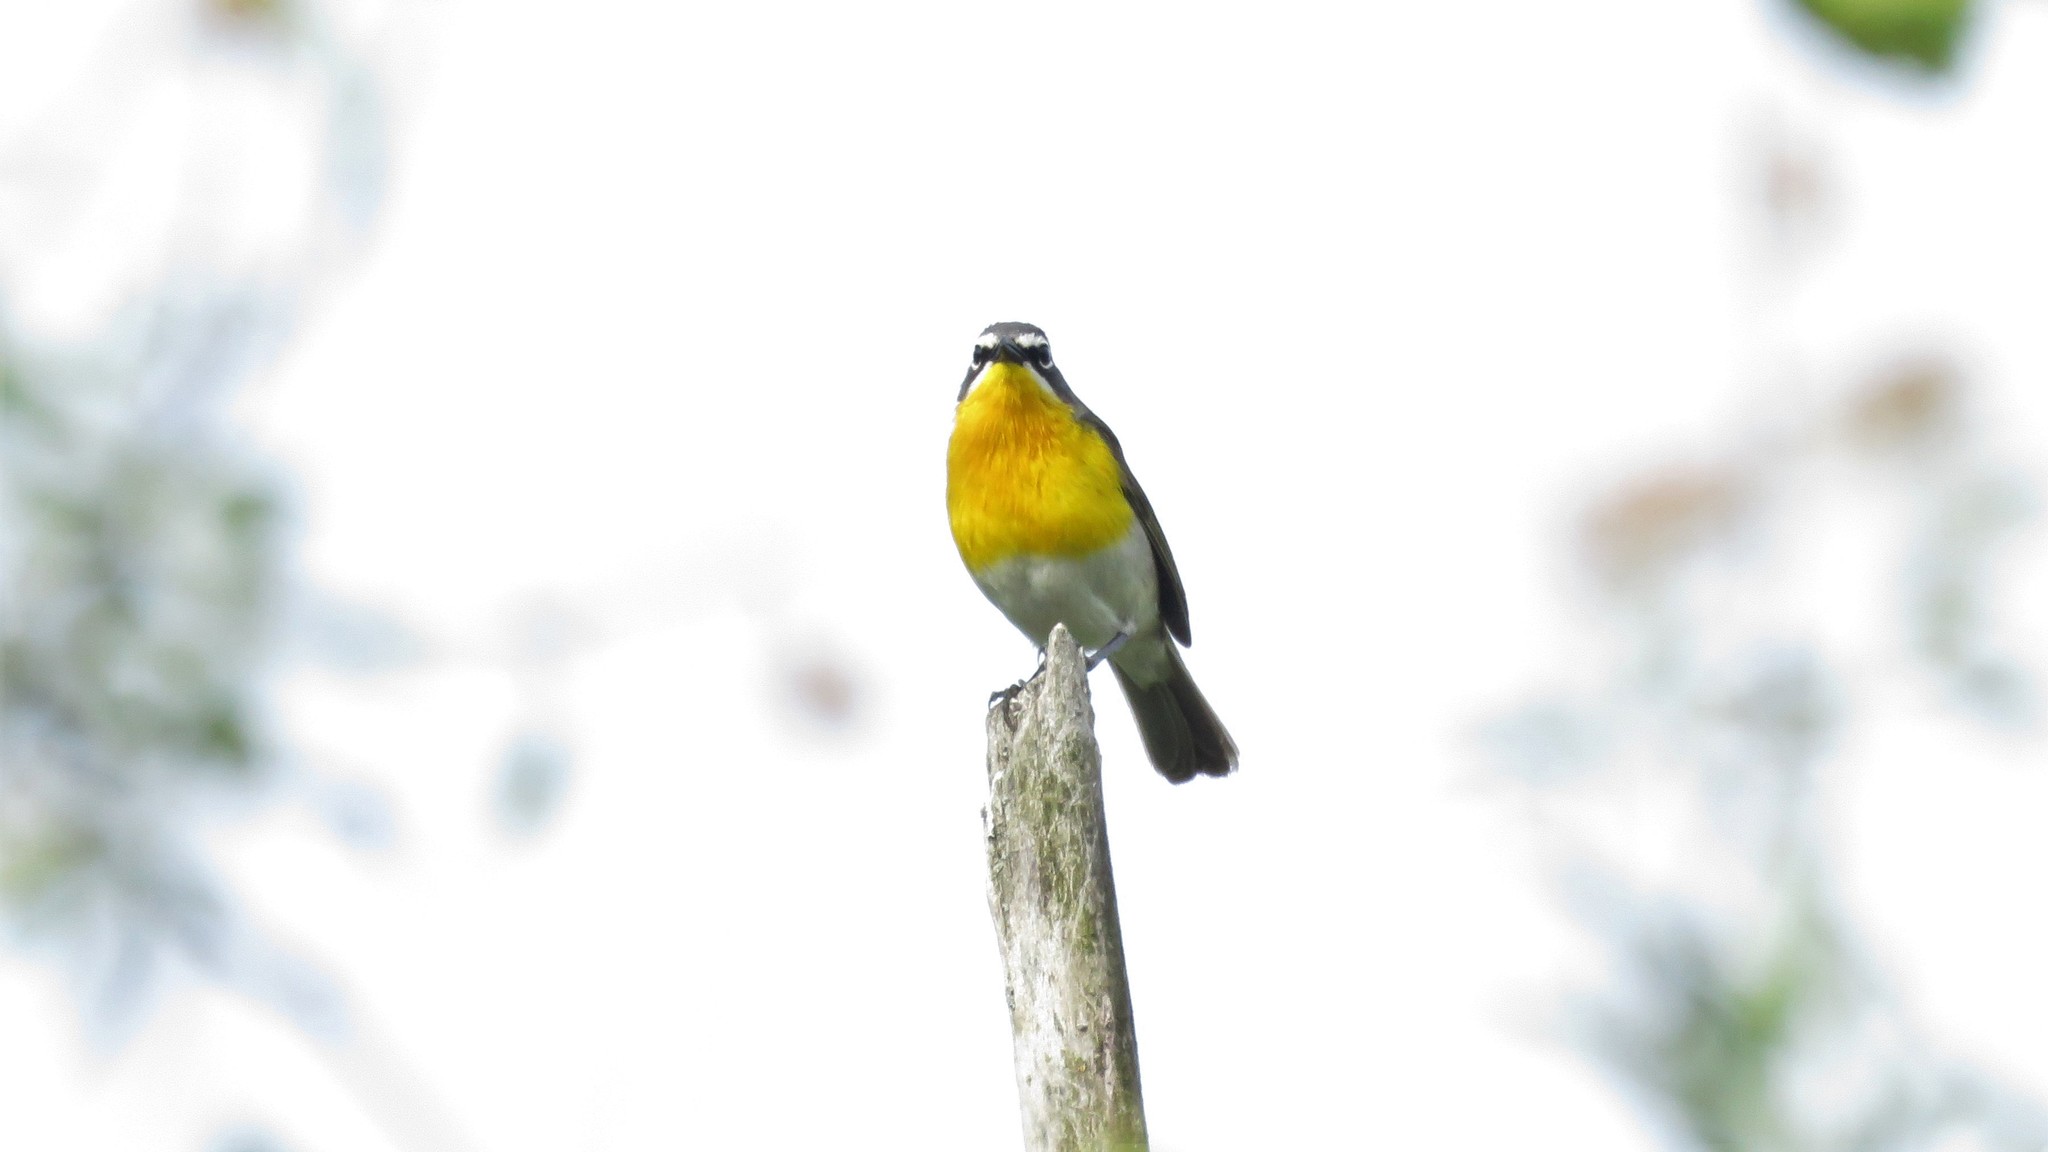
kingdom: Animalia
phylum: Chordata
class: Aves
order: Passeriformes
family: Parulidae
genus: Icteria
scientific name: Icteria virens
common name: Yellow-breasted chat
